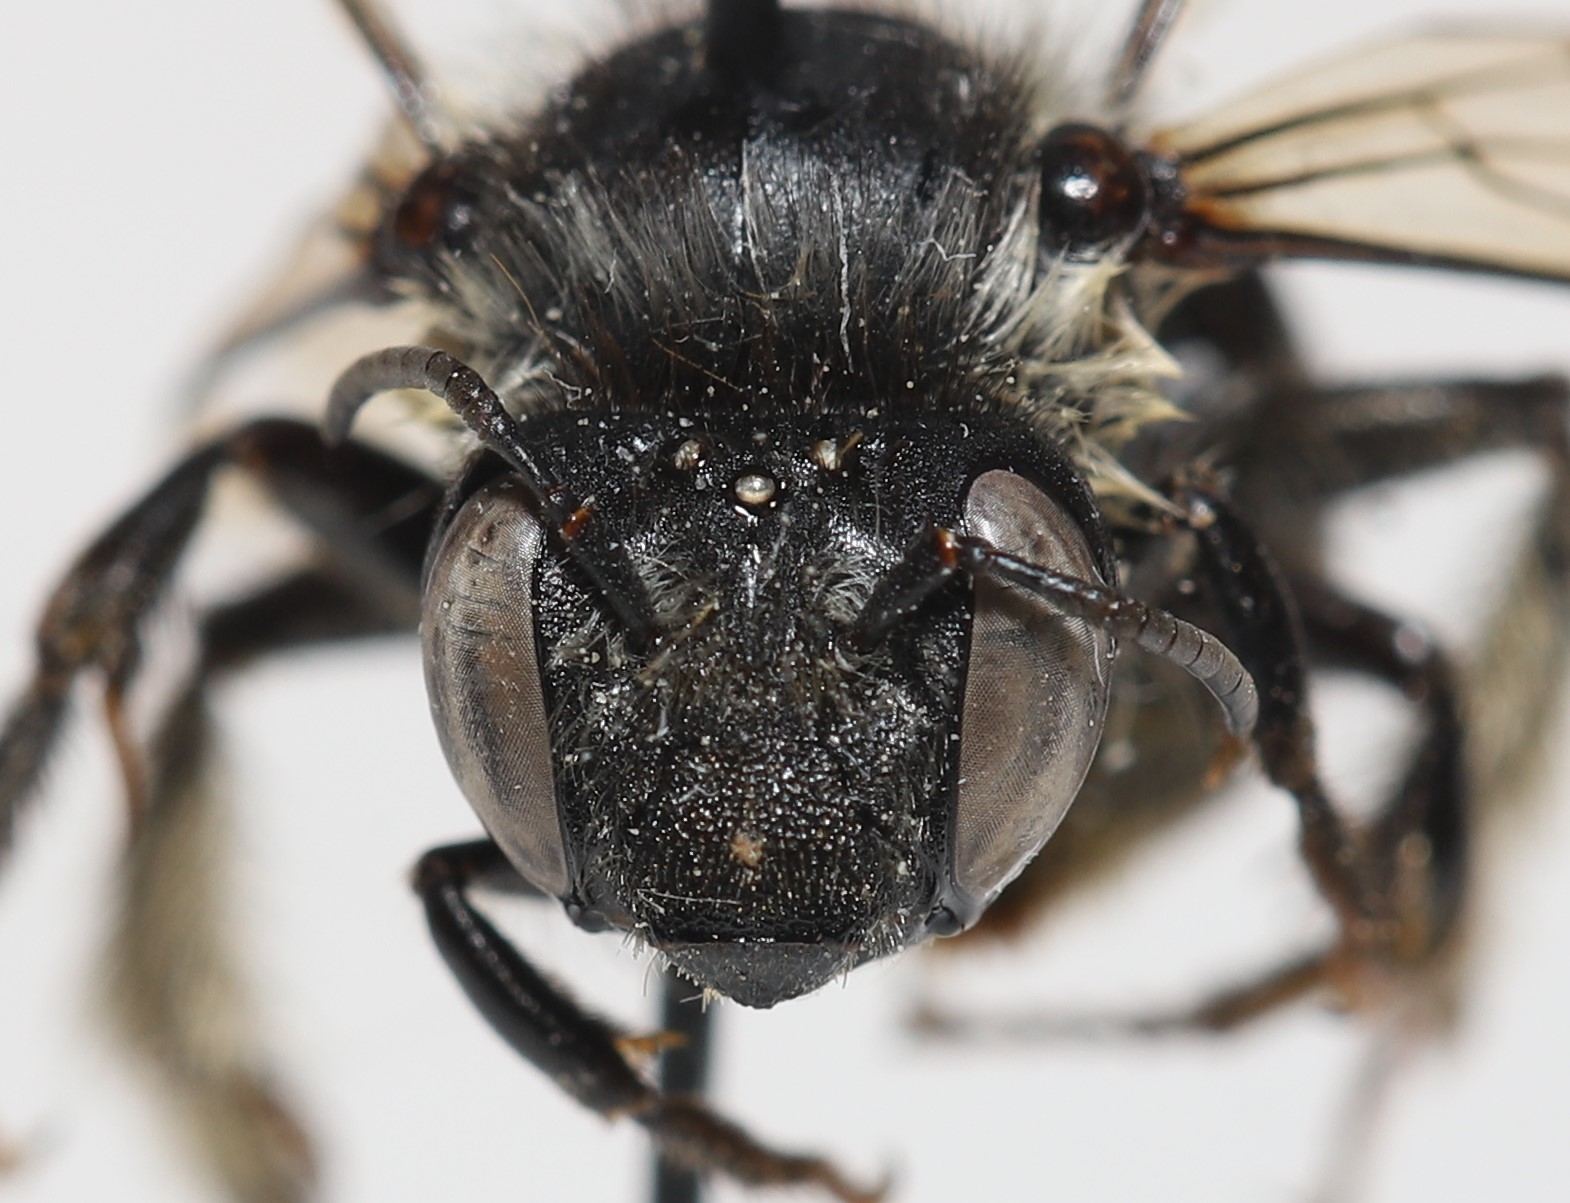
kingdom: Animalia
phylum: Arthropoda
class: Insecta
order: Hymenoptera
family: Apidae
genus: Anthophora
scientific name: Anthophora terminalis
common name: Orange-tipped wood-digger bee
